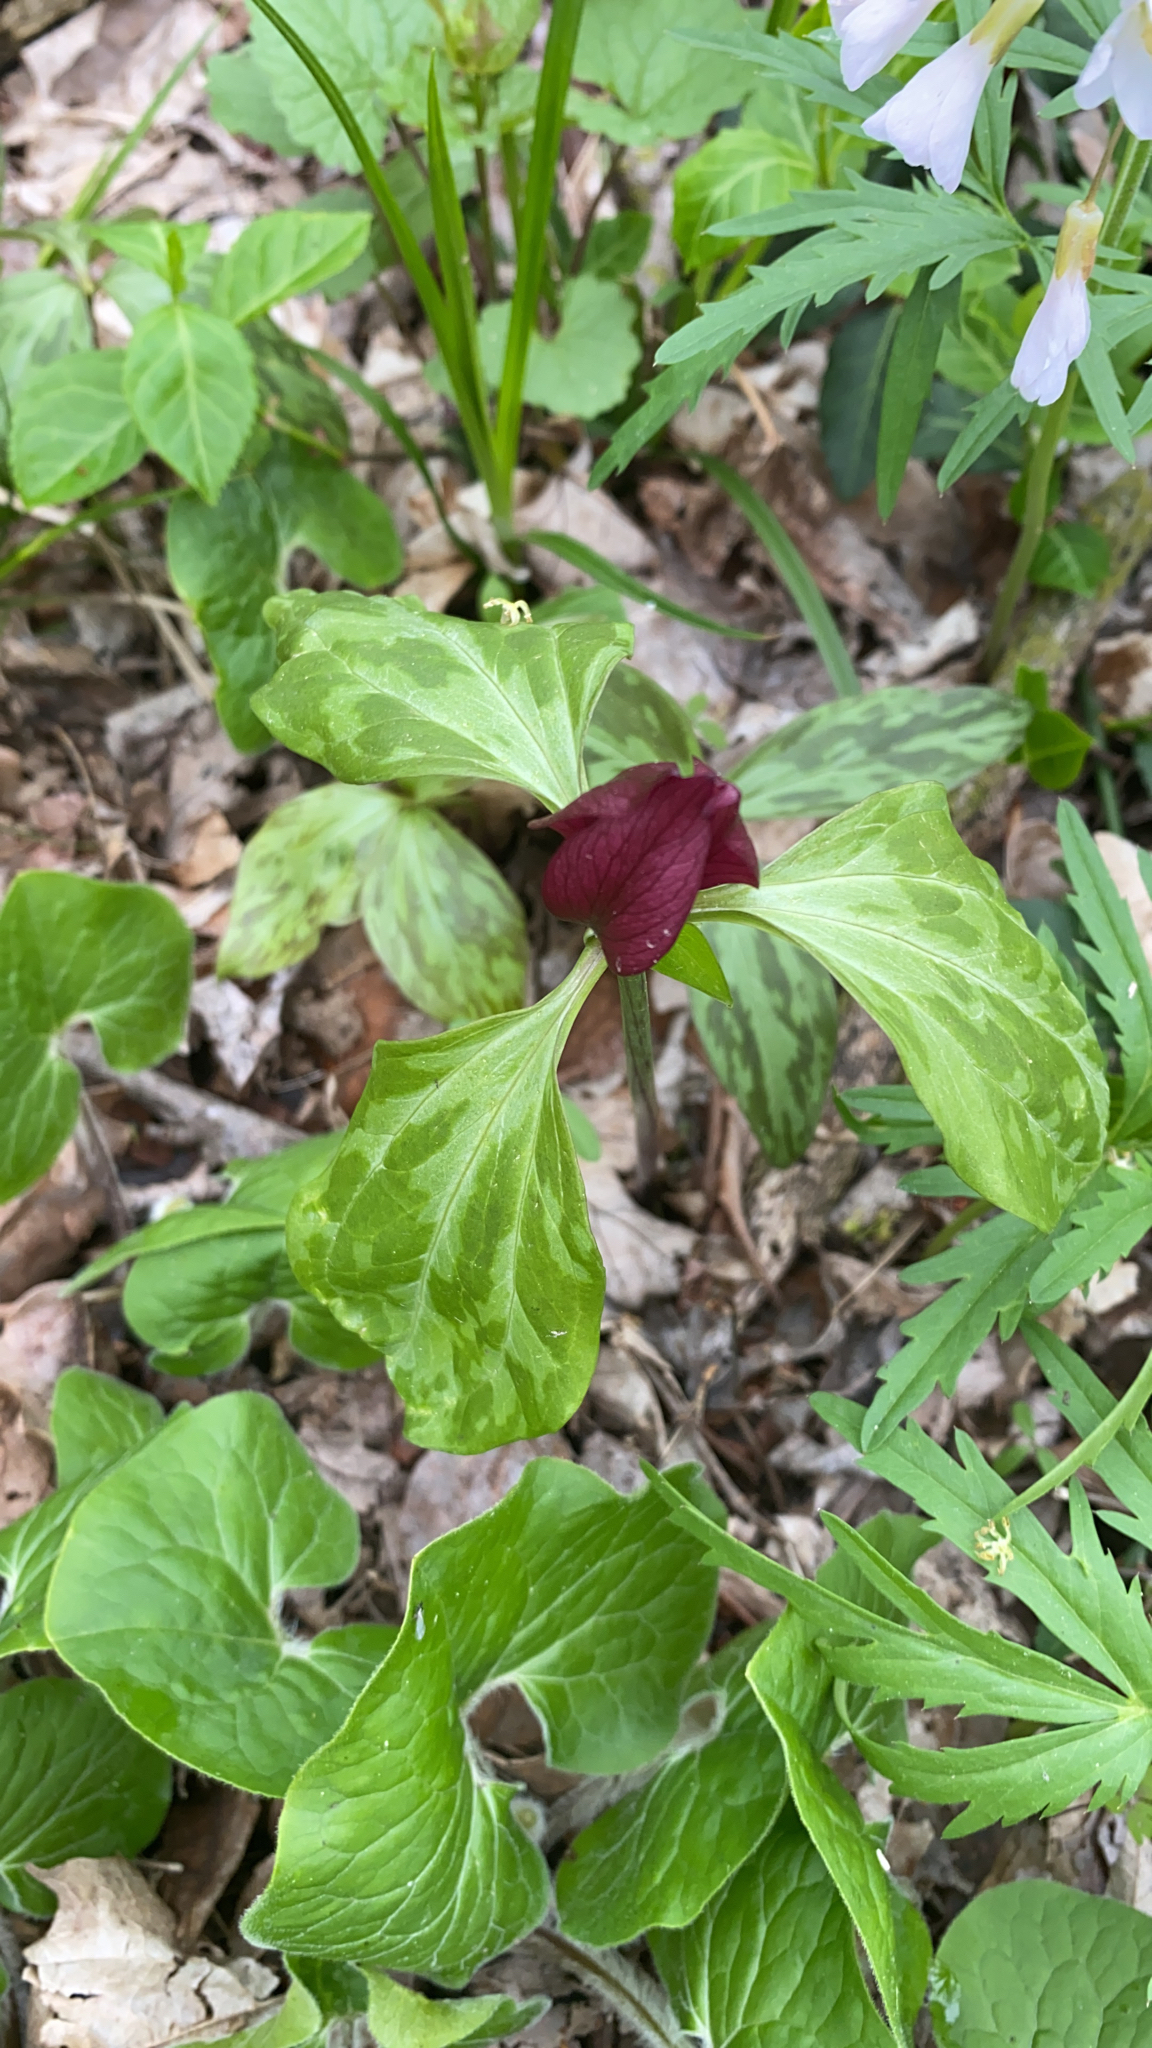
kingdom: Plantae
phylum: Tracheophyta
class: Liliopsida
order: Liliales
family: Melanthiaceae
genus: Trillium
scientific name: Trillium recurvatum
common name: Bloody butcher
